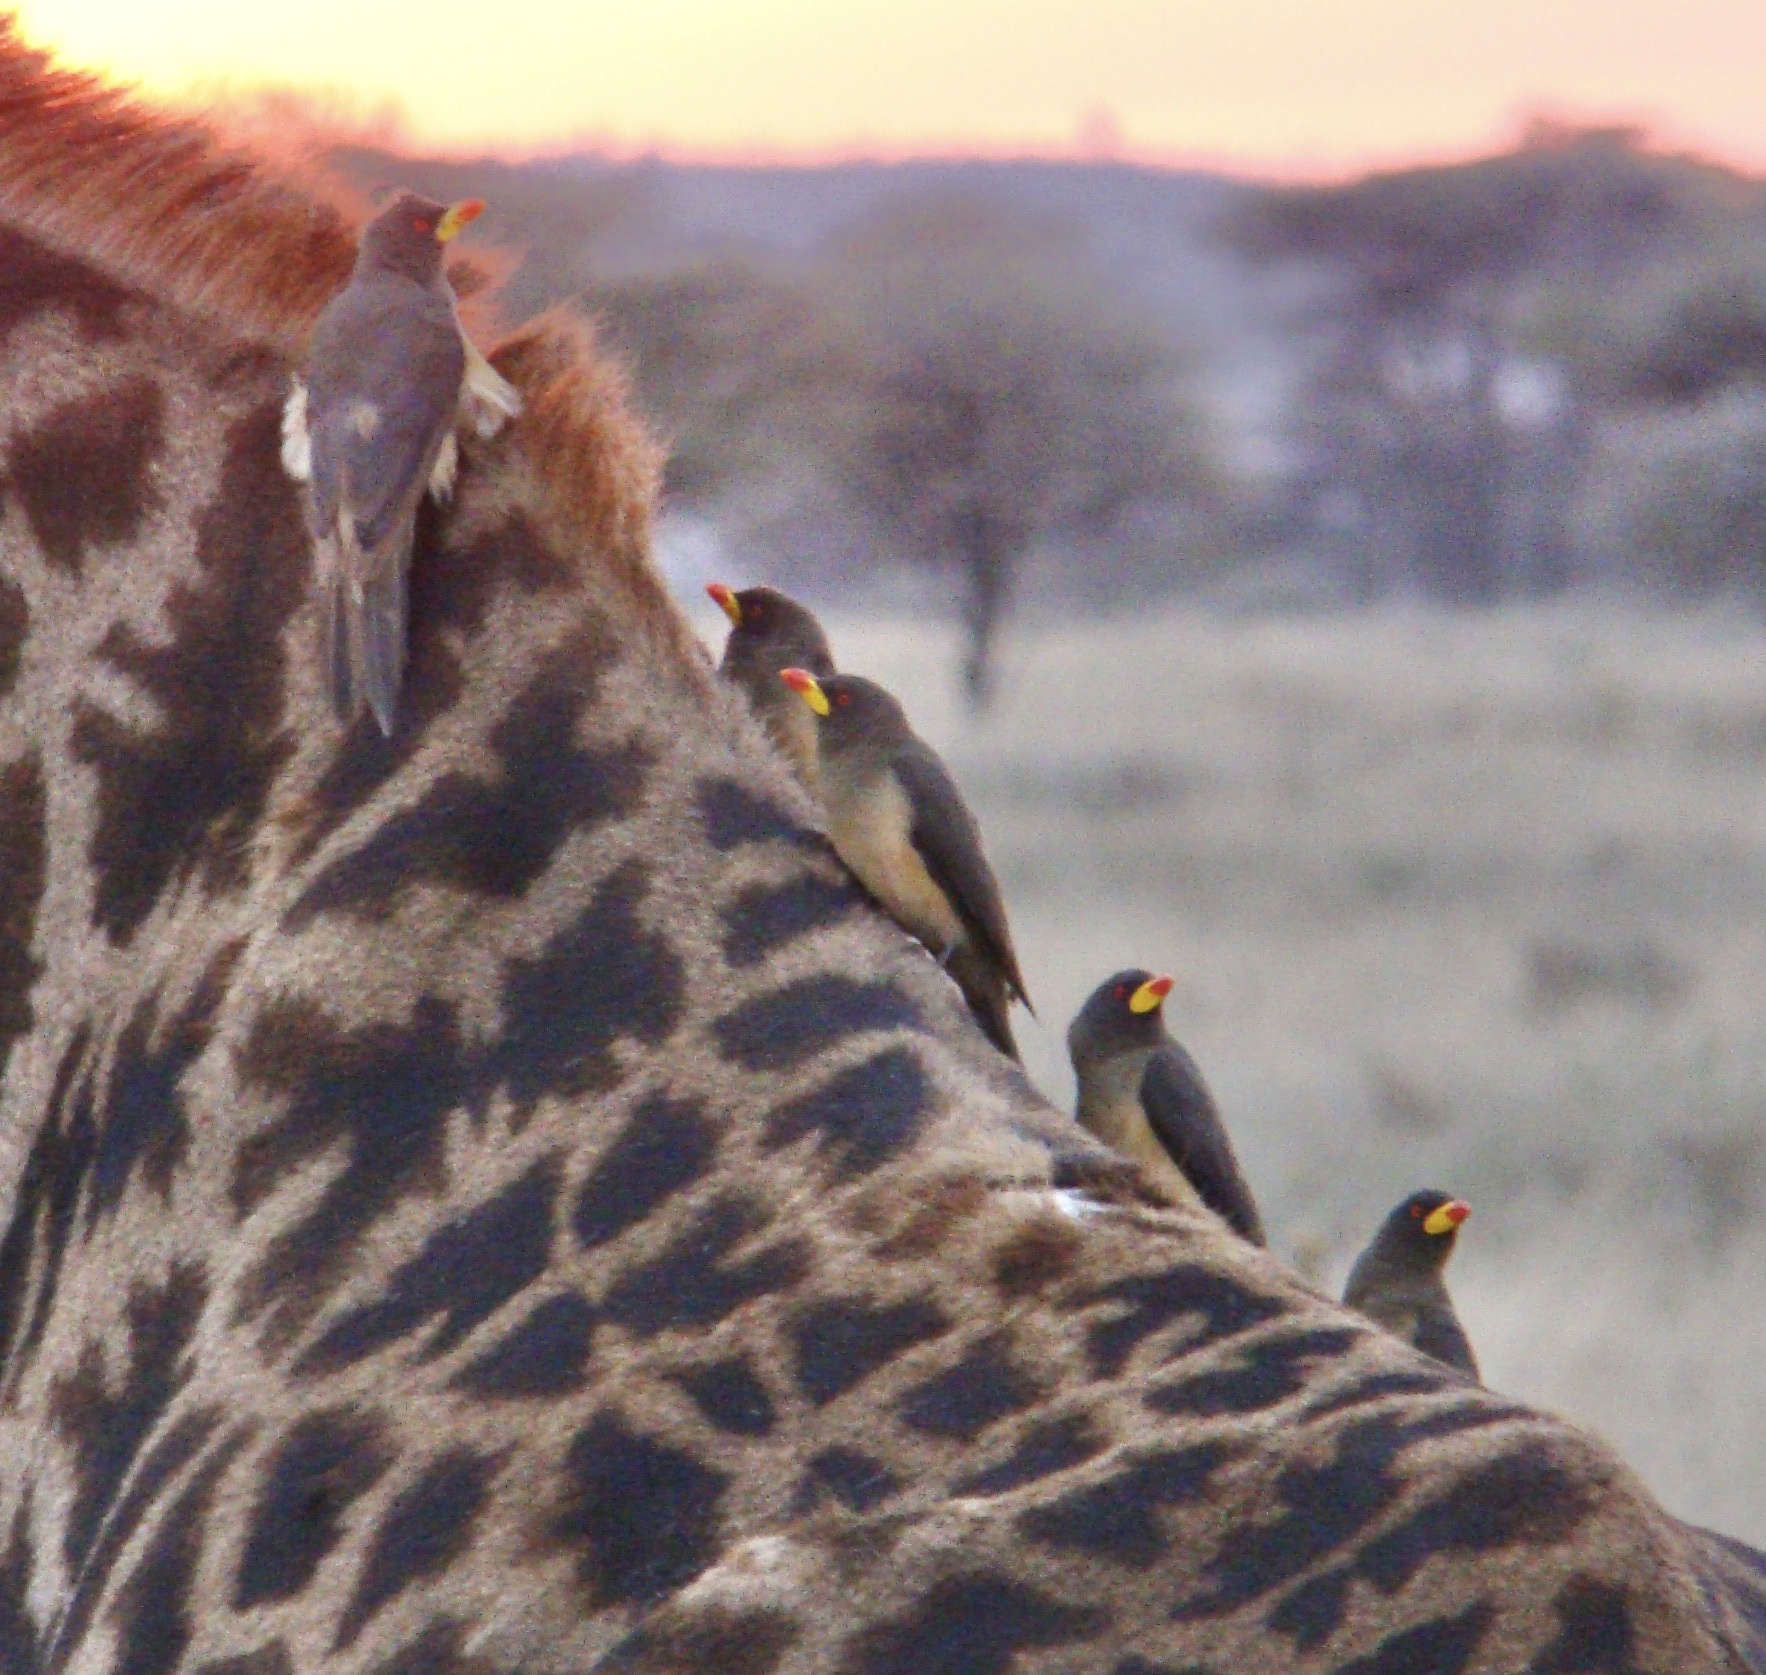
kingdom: Animalia
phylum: Chordata
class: Aves
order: Passeriformes
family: Buphagidae
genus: Buphagus
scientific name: Buphagus africanus
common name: Yellow-billed oxpecker
